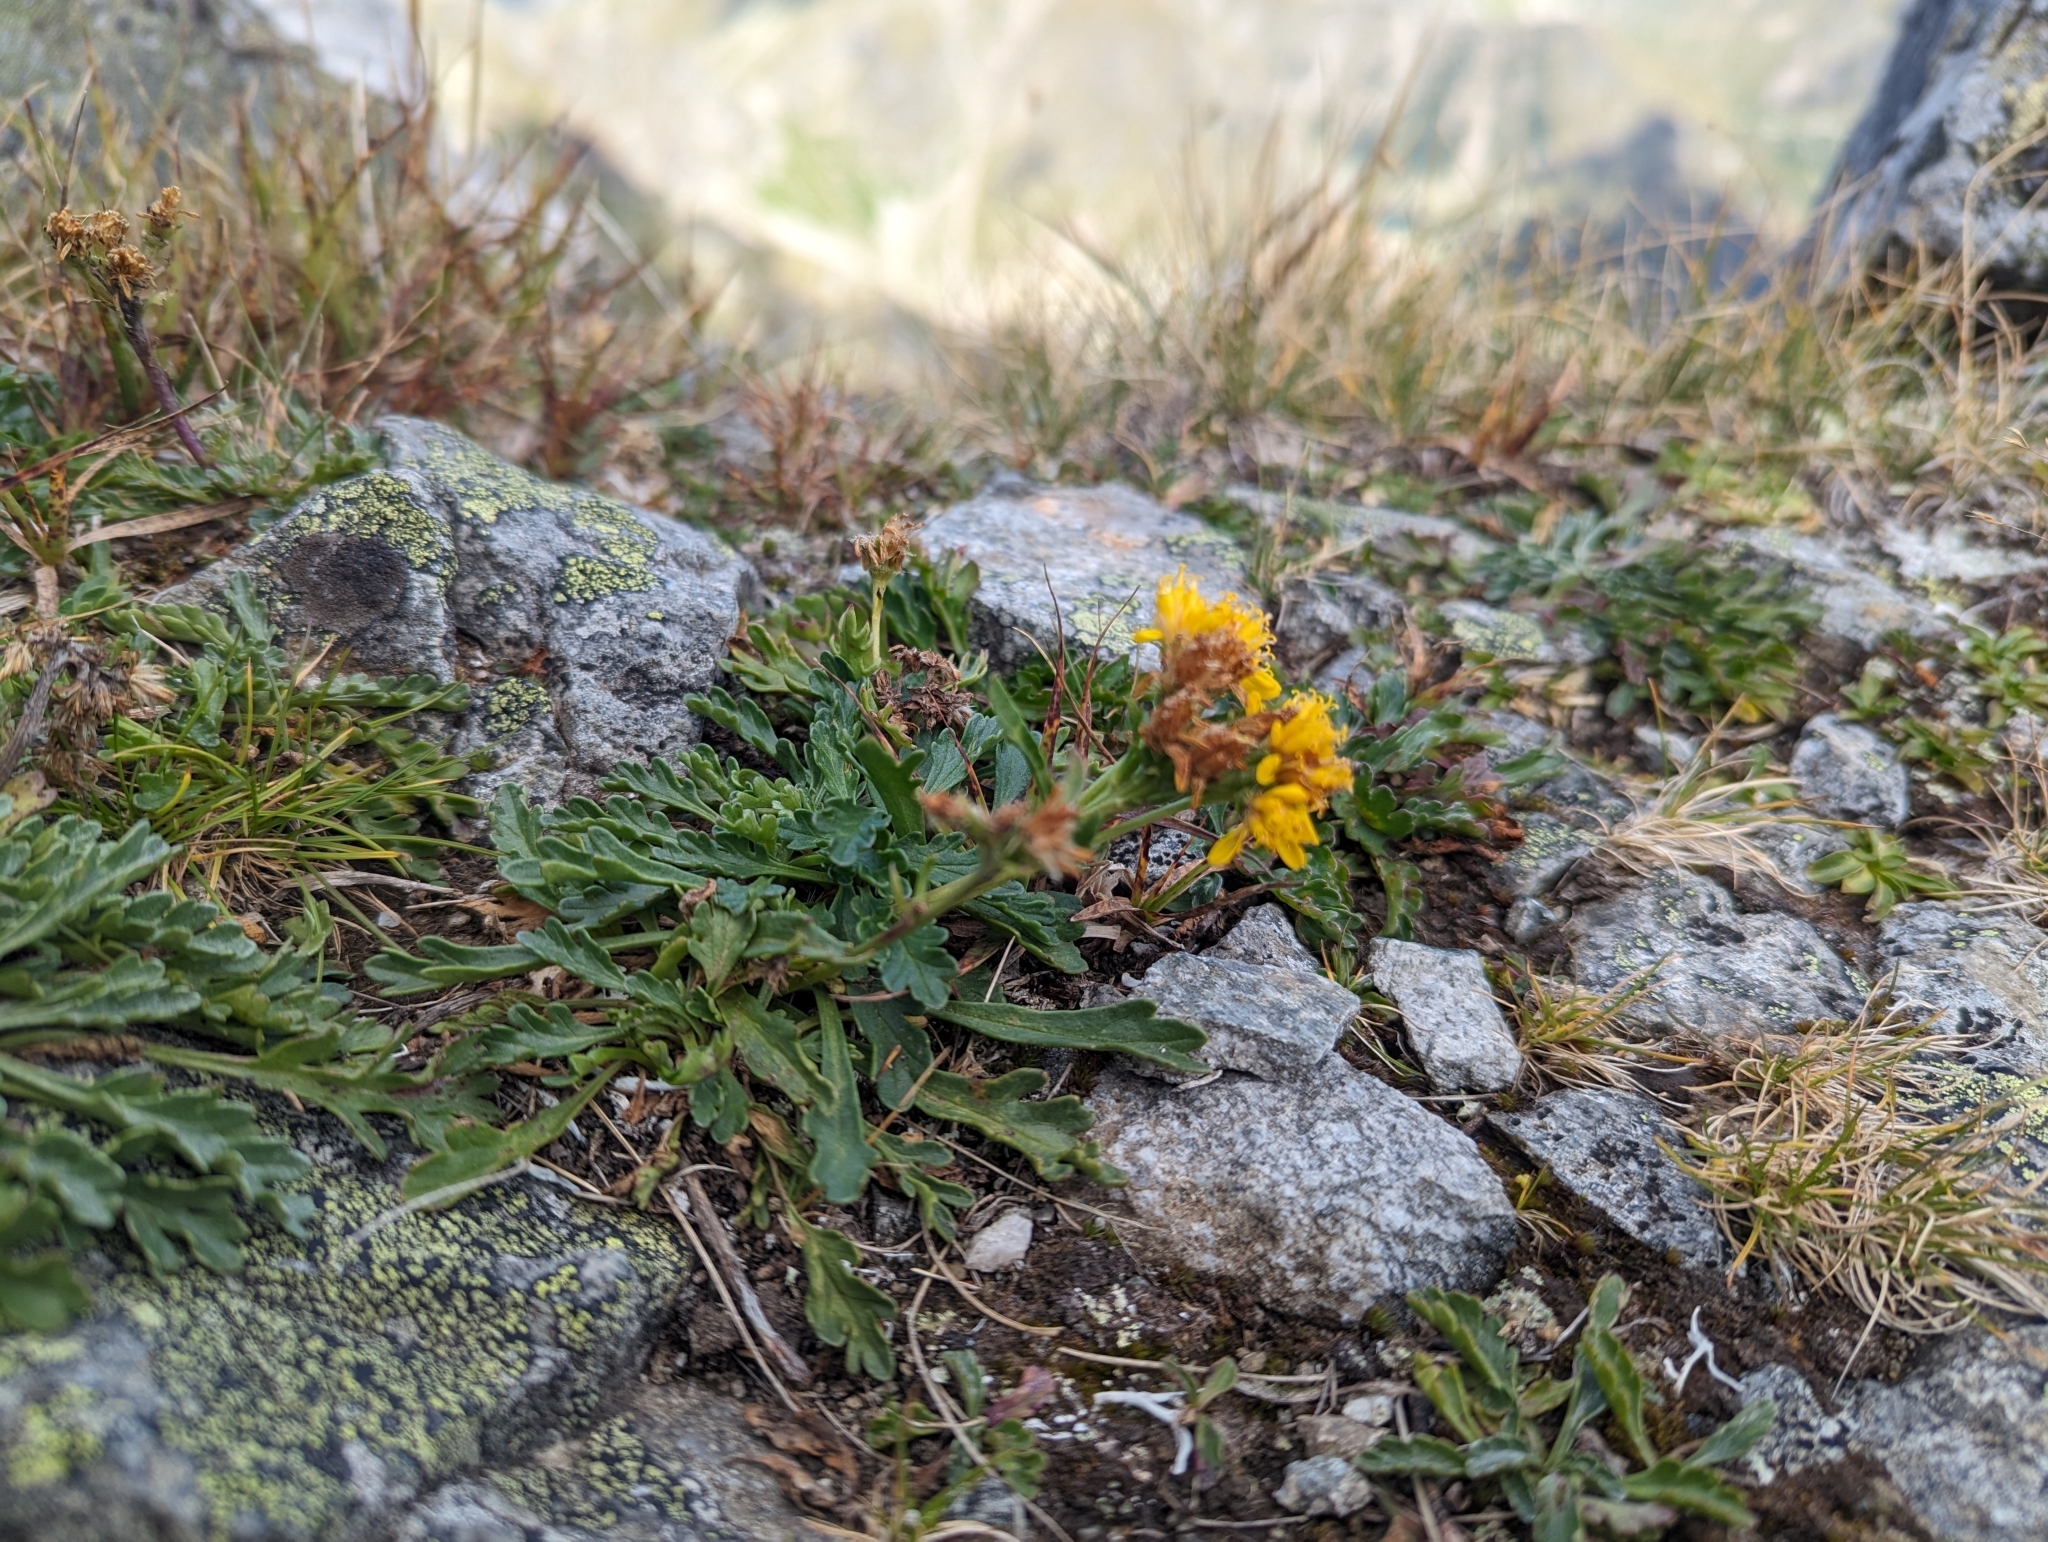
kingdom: Plantae
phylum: Tracheophyta
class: Magnoliopsida
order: Asterales
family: Asteraceae
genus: Jacobaea
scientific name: Jacobaea carniolica
